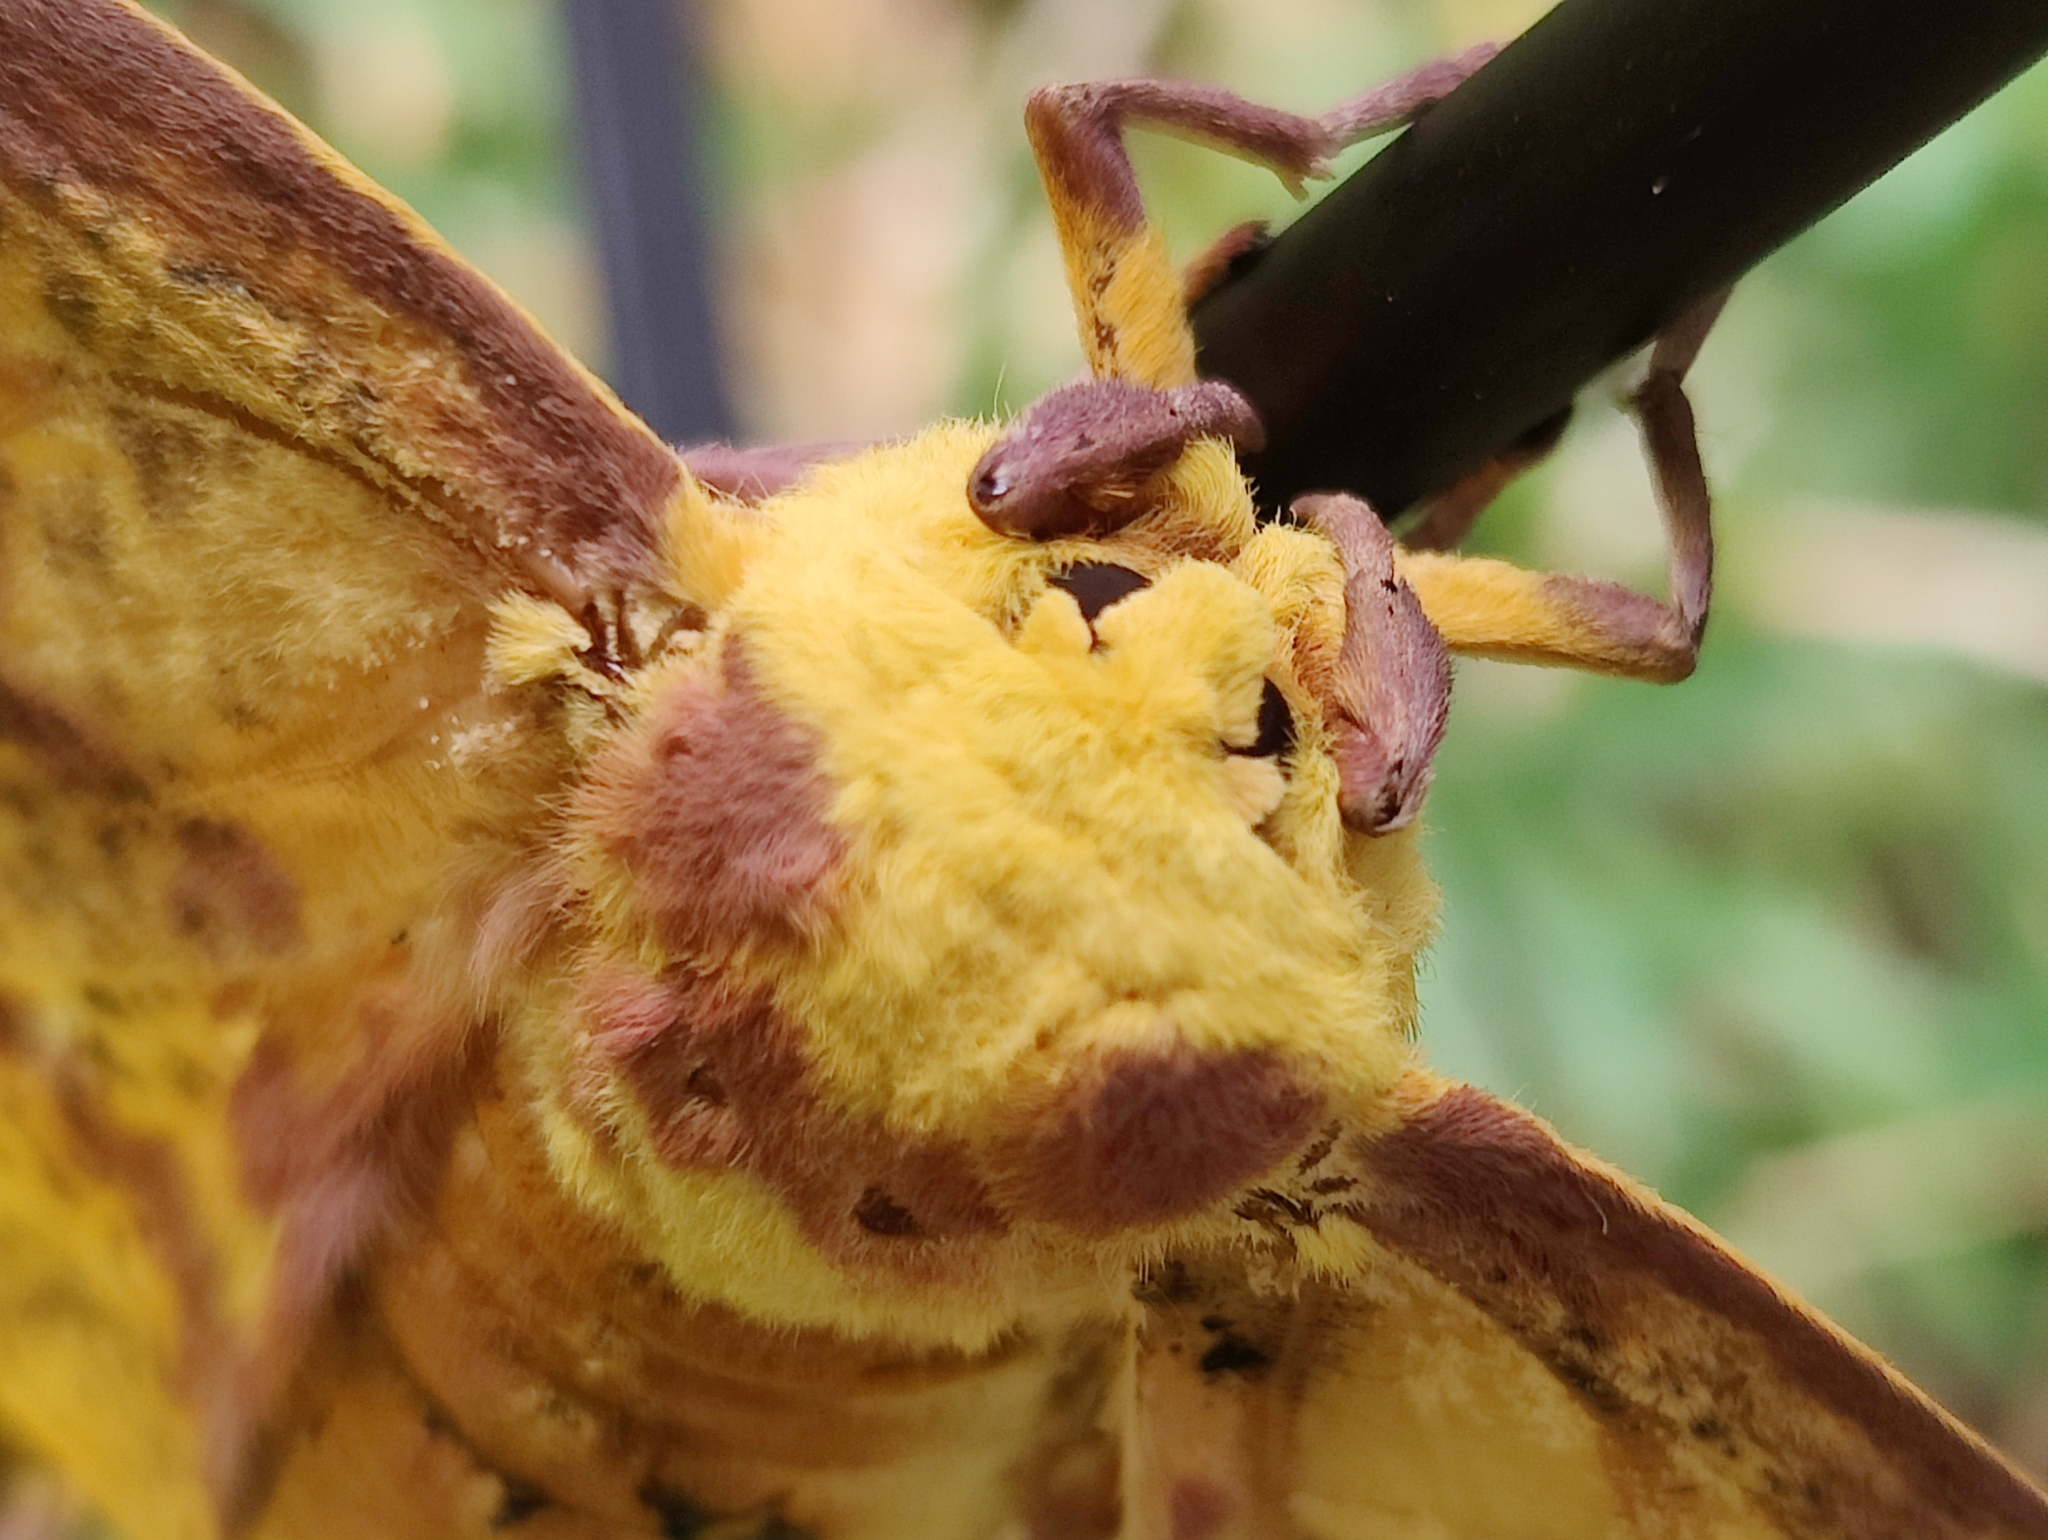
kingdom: Animalia
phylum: Arthropoda
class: Insecta
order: Lepidoptera
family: Saturniidae
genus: Eacles
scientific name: Eacles imperialis
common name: Imperial moth
